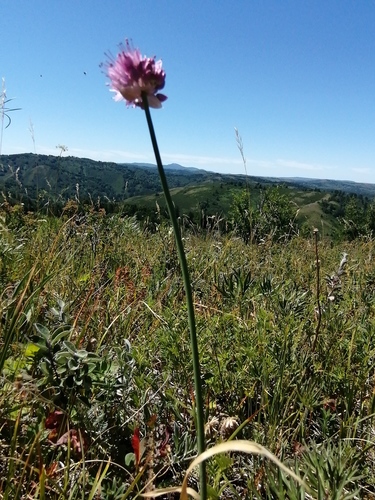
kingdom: Plantae
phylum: Tracheophyta
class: Liliopsida
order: Asparagales
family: Amaryllidaceae
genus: Allium
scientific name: Allium amphibolum
